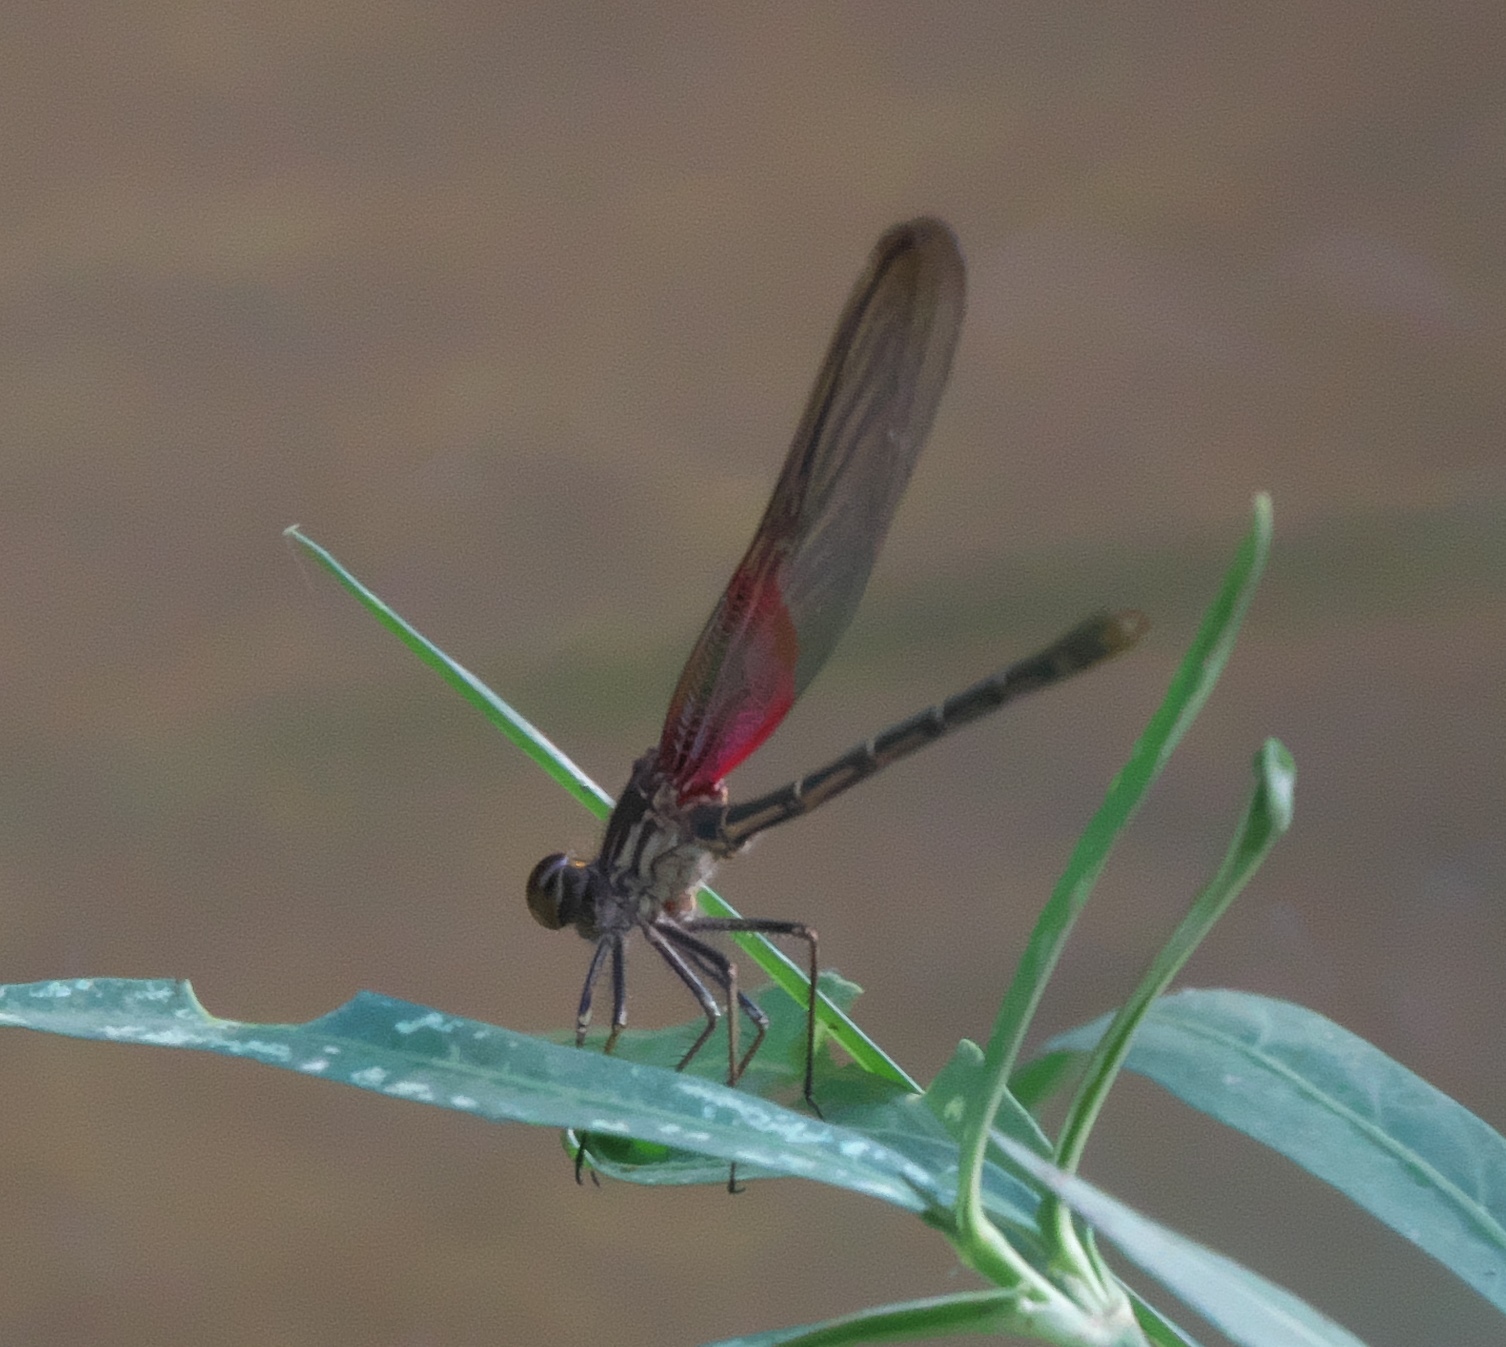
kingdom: Animalia
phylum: Arthropoda
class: Insecta
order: Odonata
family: Calopterygidae
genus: Hetaerina
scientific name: Hetaerina americana
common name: American rubyspot
